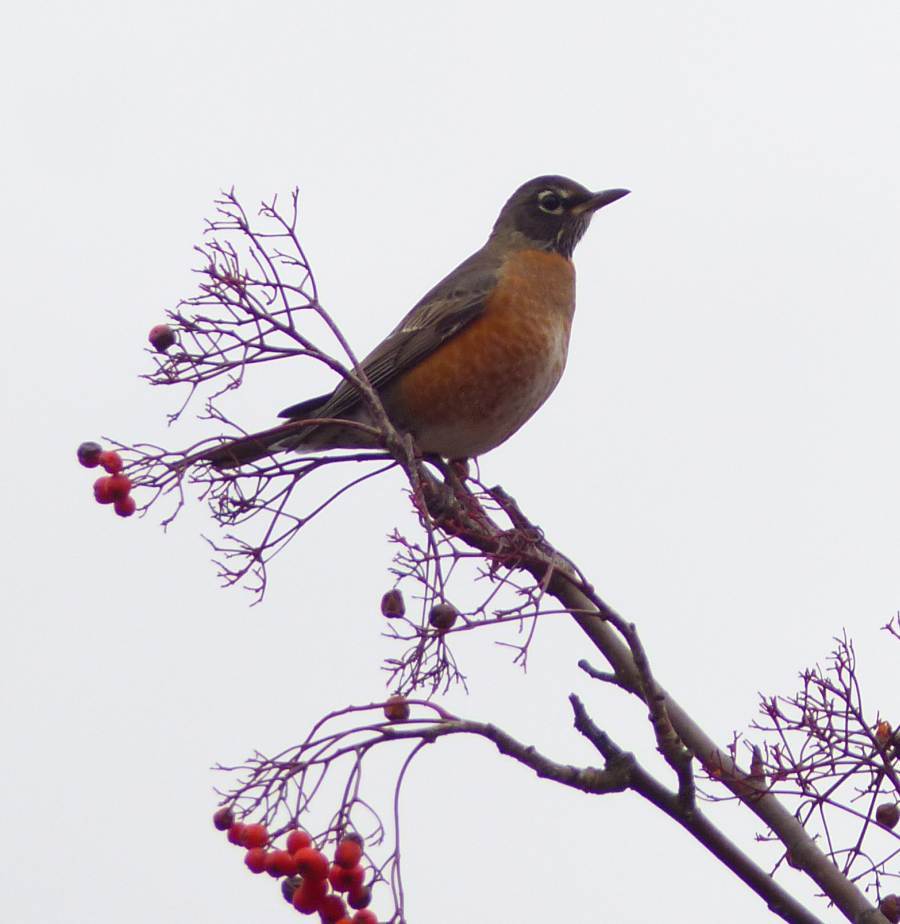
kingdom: Animalia
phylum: Chordata
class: Aves
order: Passeriformes
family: Turdidae
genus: Turdus
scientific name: Turdus migratorius
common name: American robin
